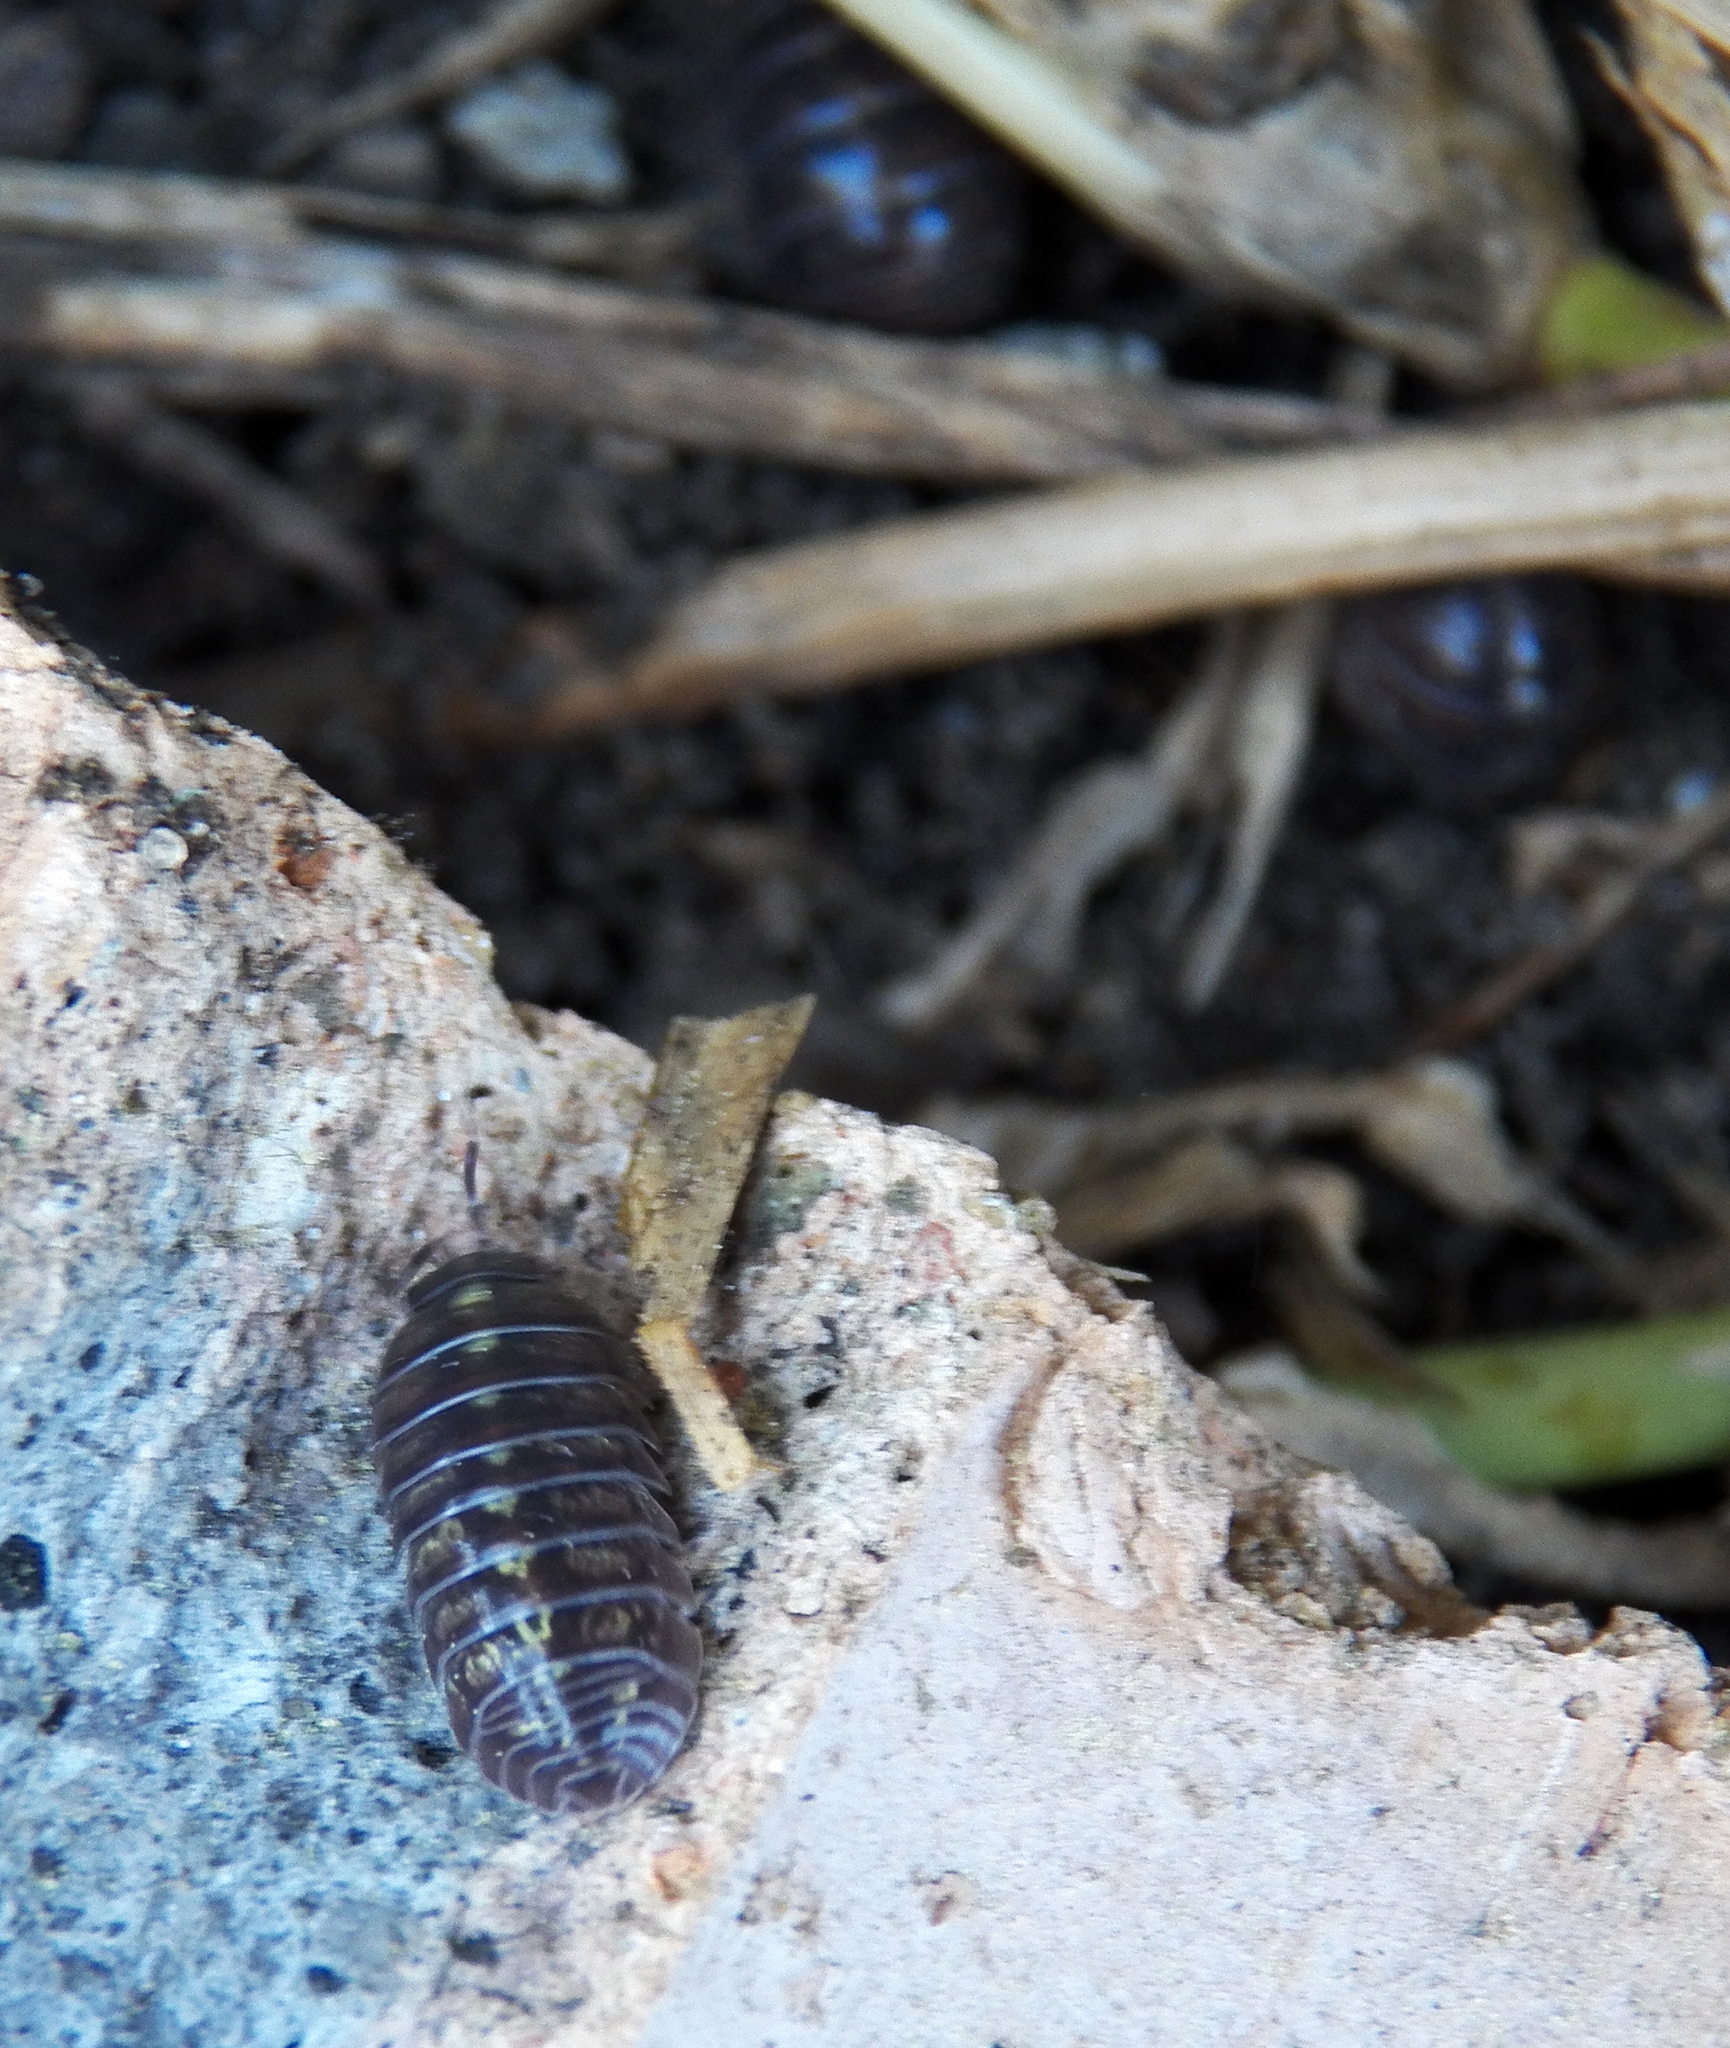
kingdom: Animalia
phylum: Arthropoda
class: Malacostraca
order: Isopoda
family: Armadillidiidae
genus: Armadillidium
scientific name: Armadillidium vulgare
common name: Common pill woodlouse
